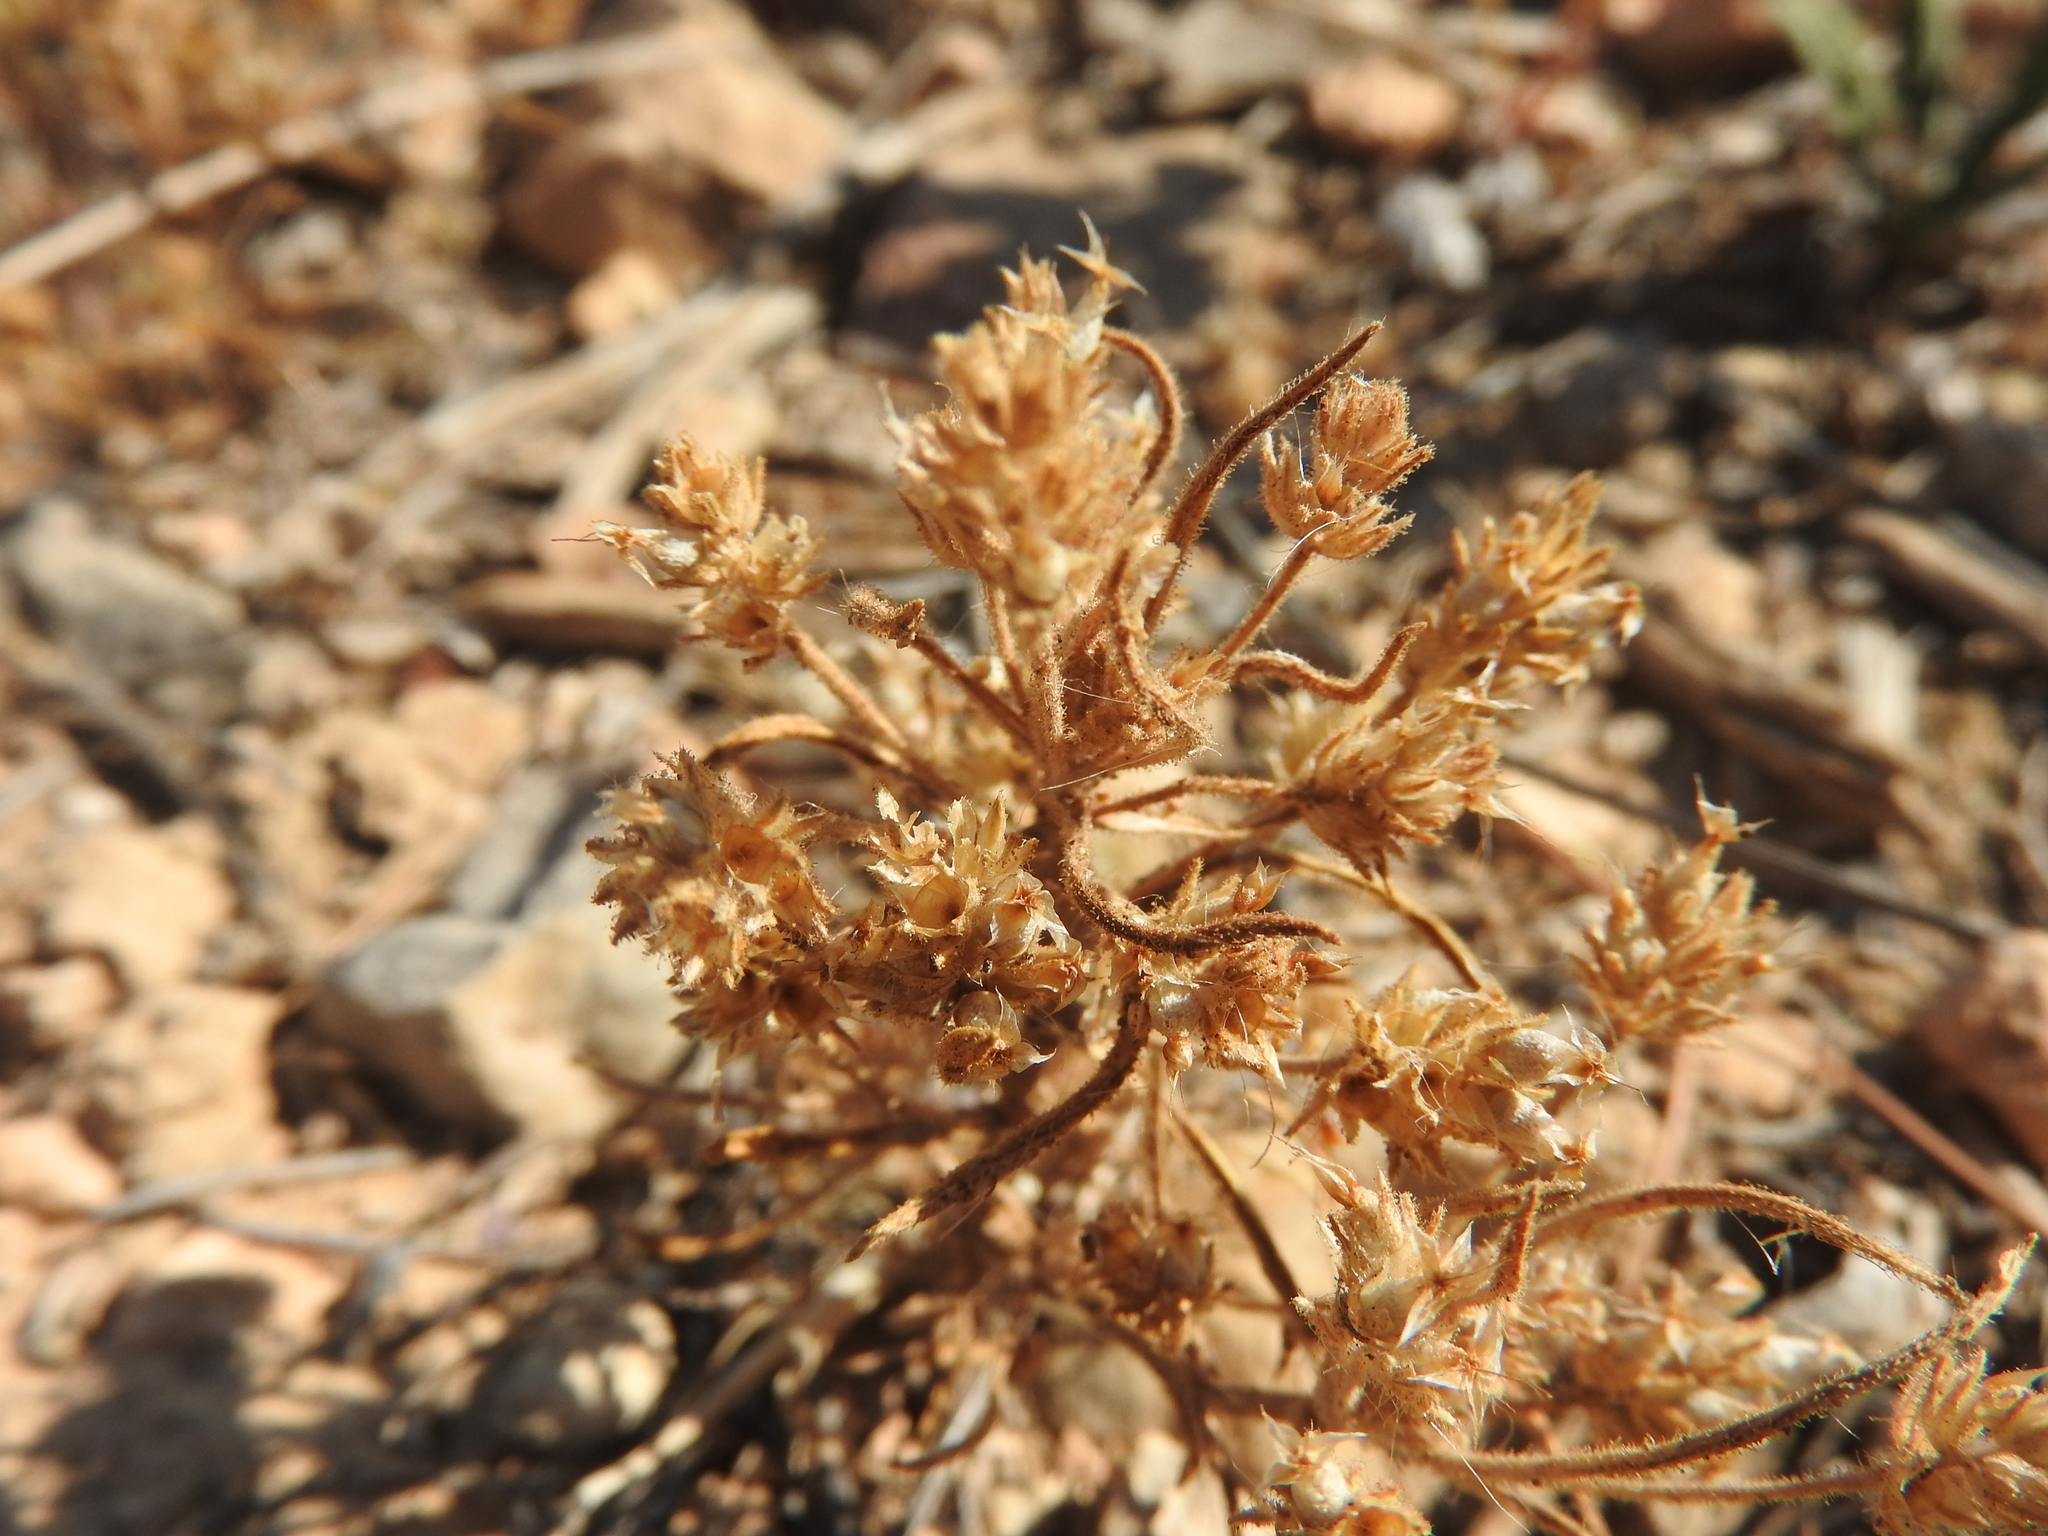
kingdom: Plantae
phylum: Tracheophyta
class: Magnoliopsida
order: Lamiales
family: Plantaginaceae
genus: Plantago
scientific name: Plantago afra
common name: Glandular plantain
